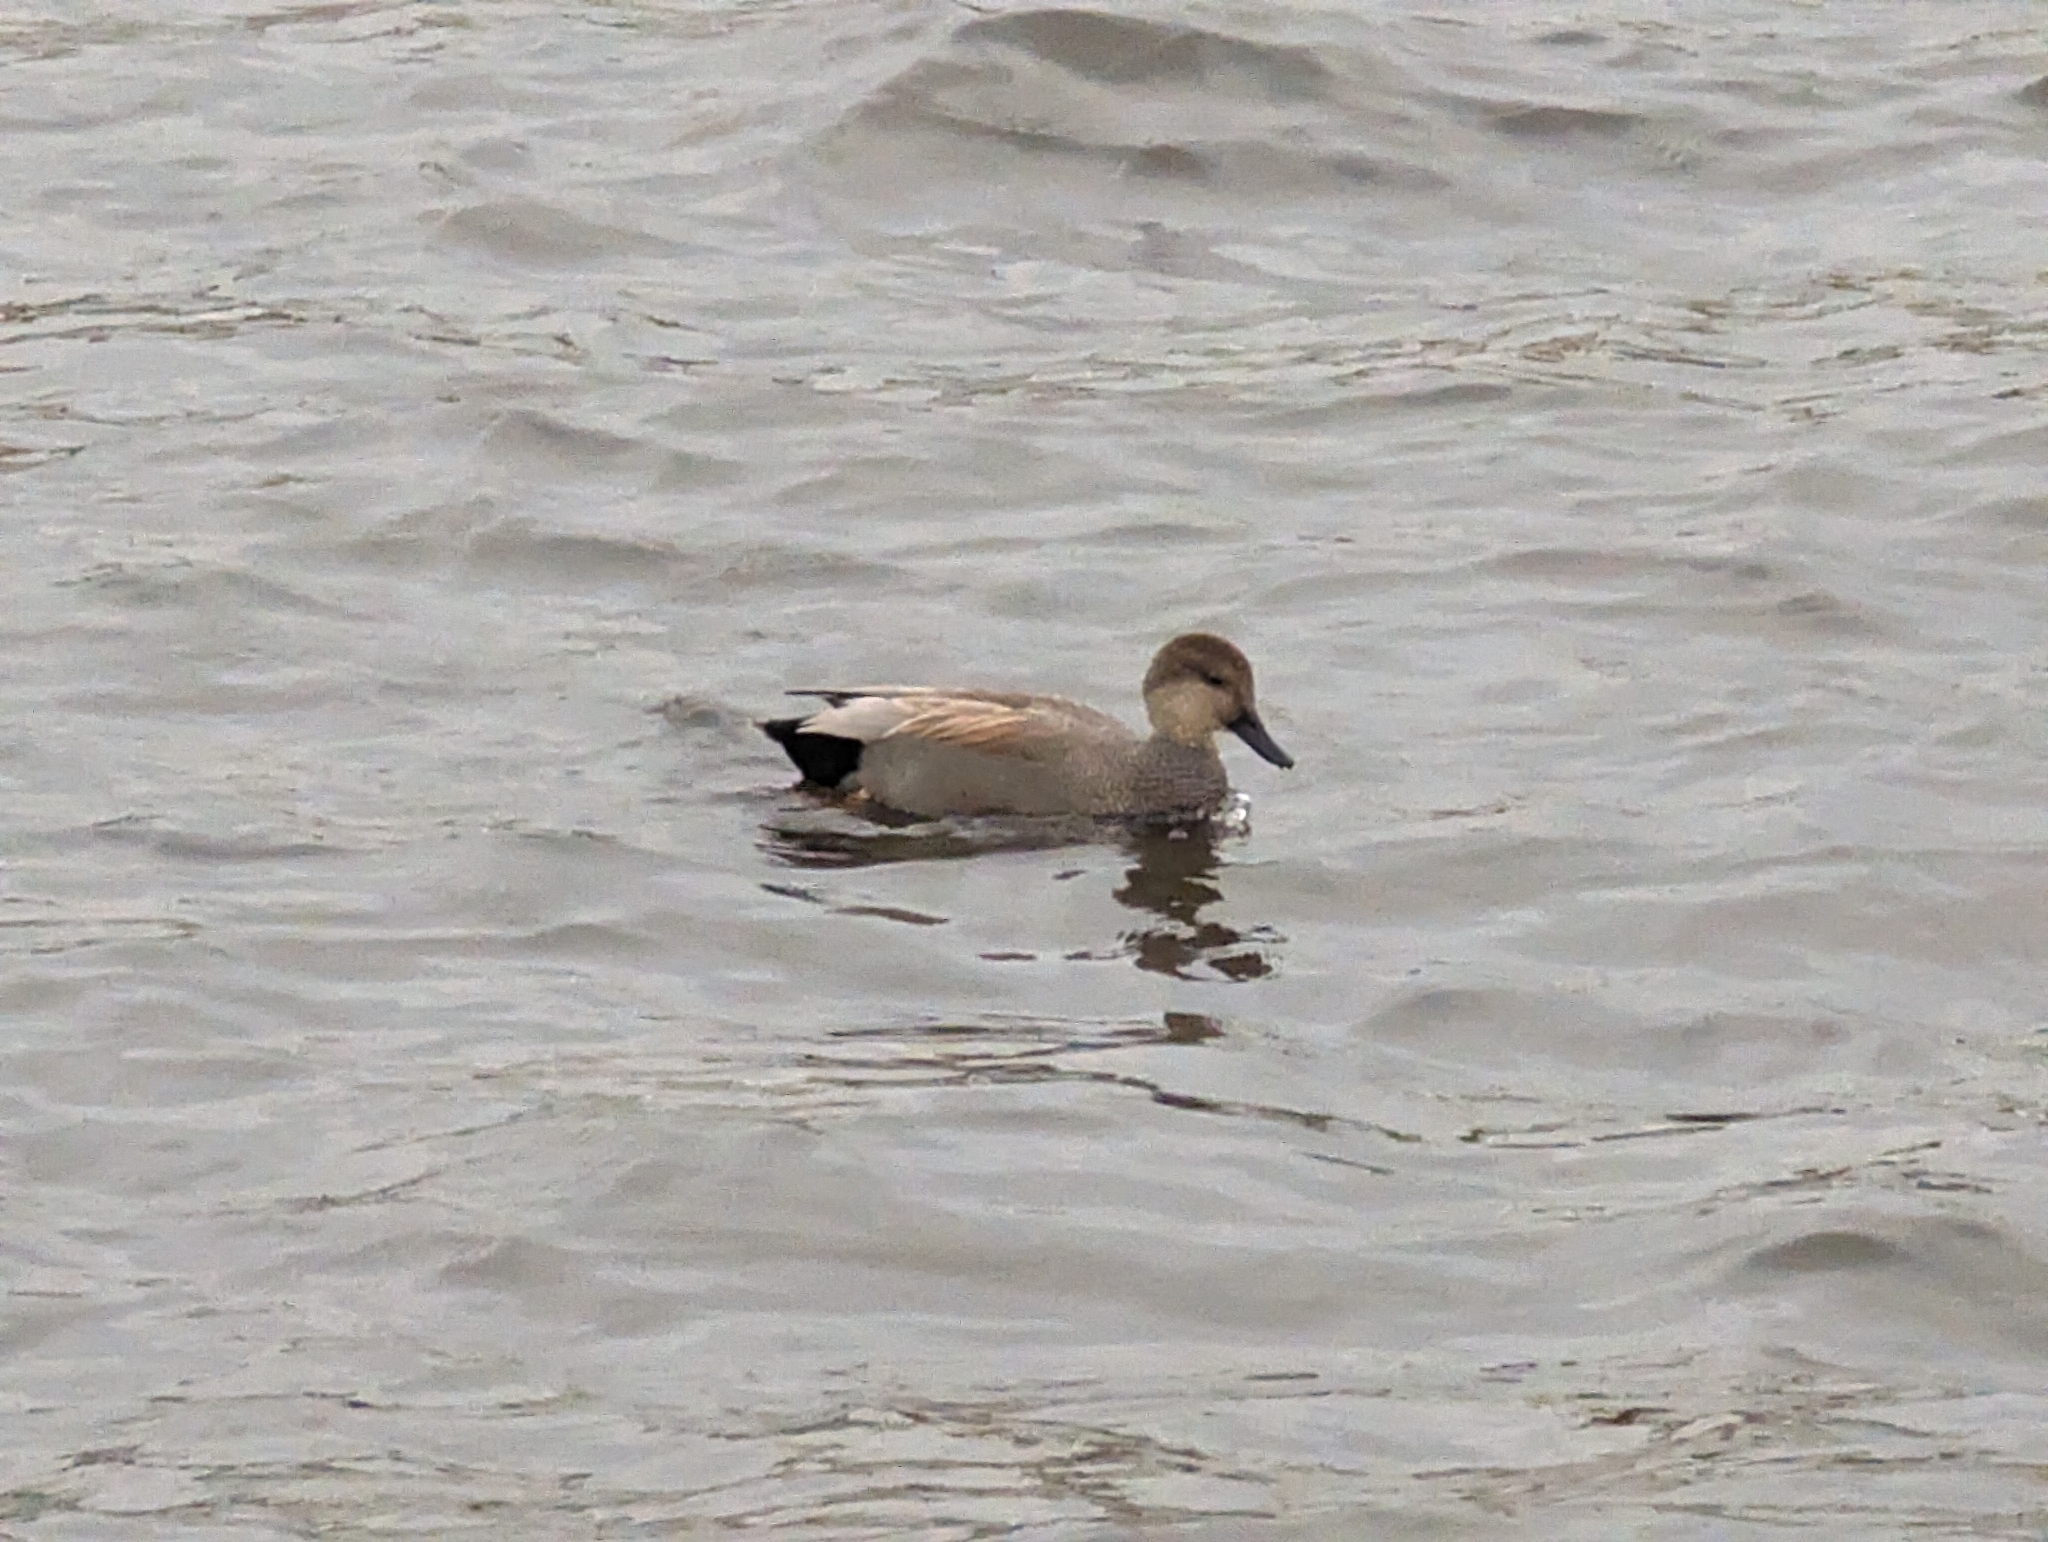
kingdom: Animalia
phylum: Chordata
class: Aves
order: Anseriformes
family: Anatidae
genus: Mareca
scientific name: Mareca strepera
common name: Gadwall
